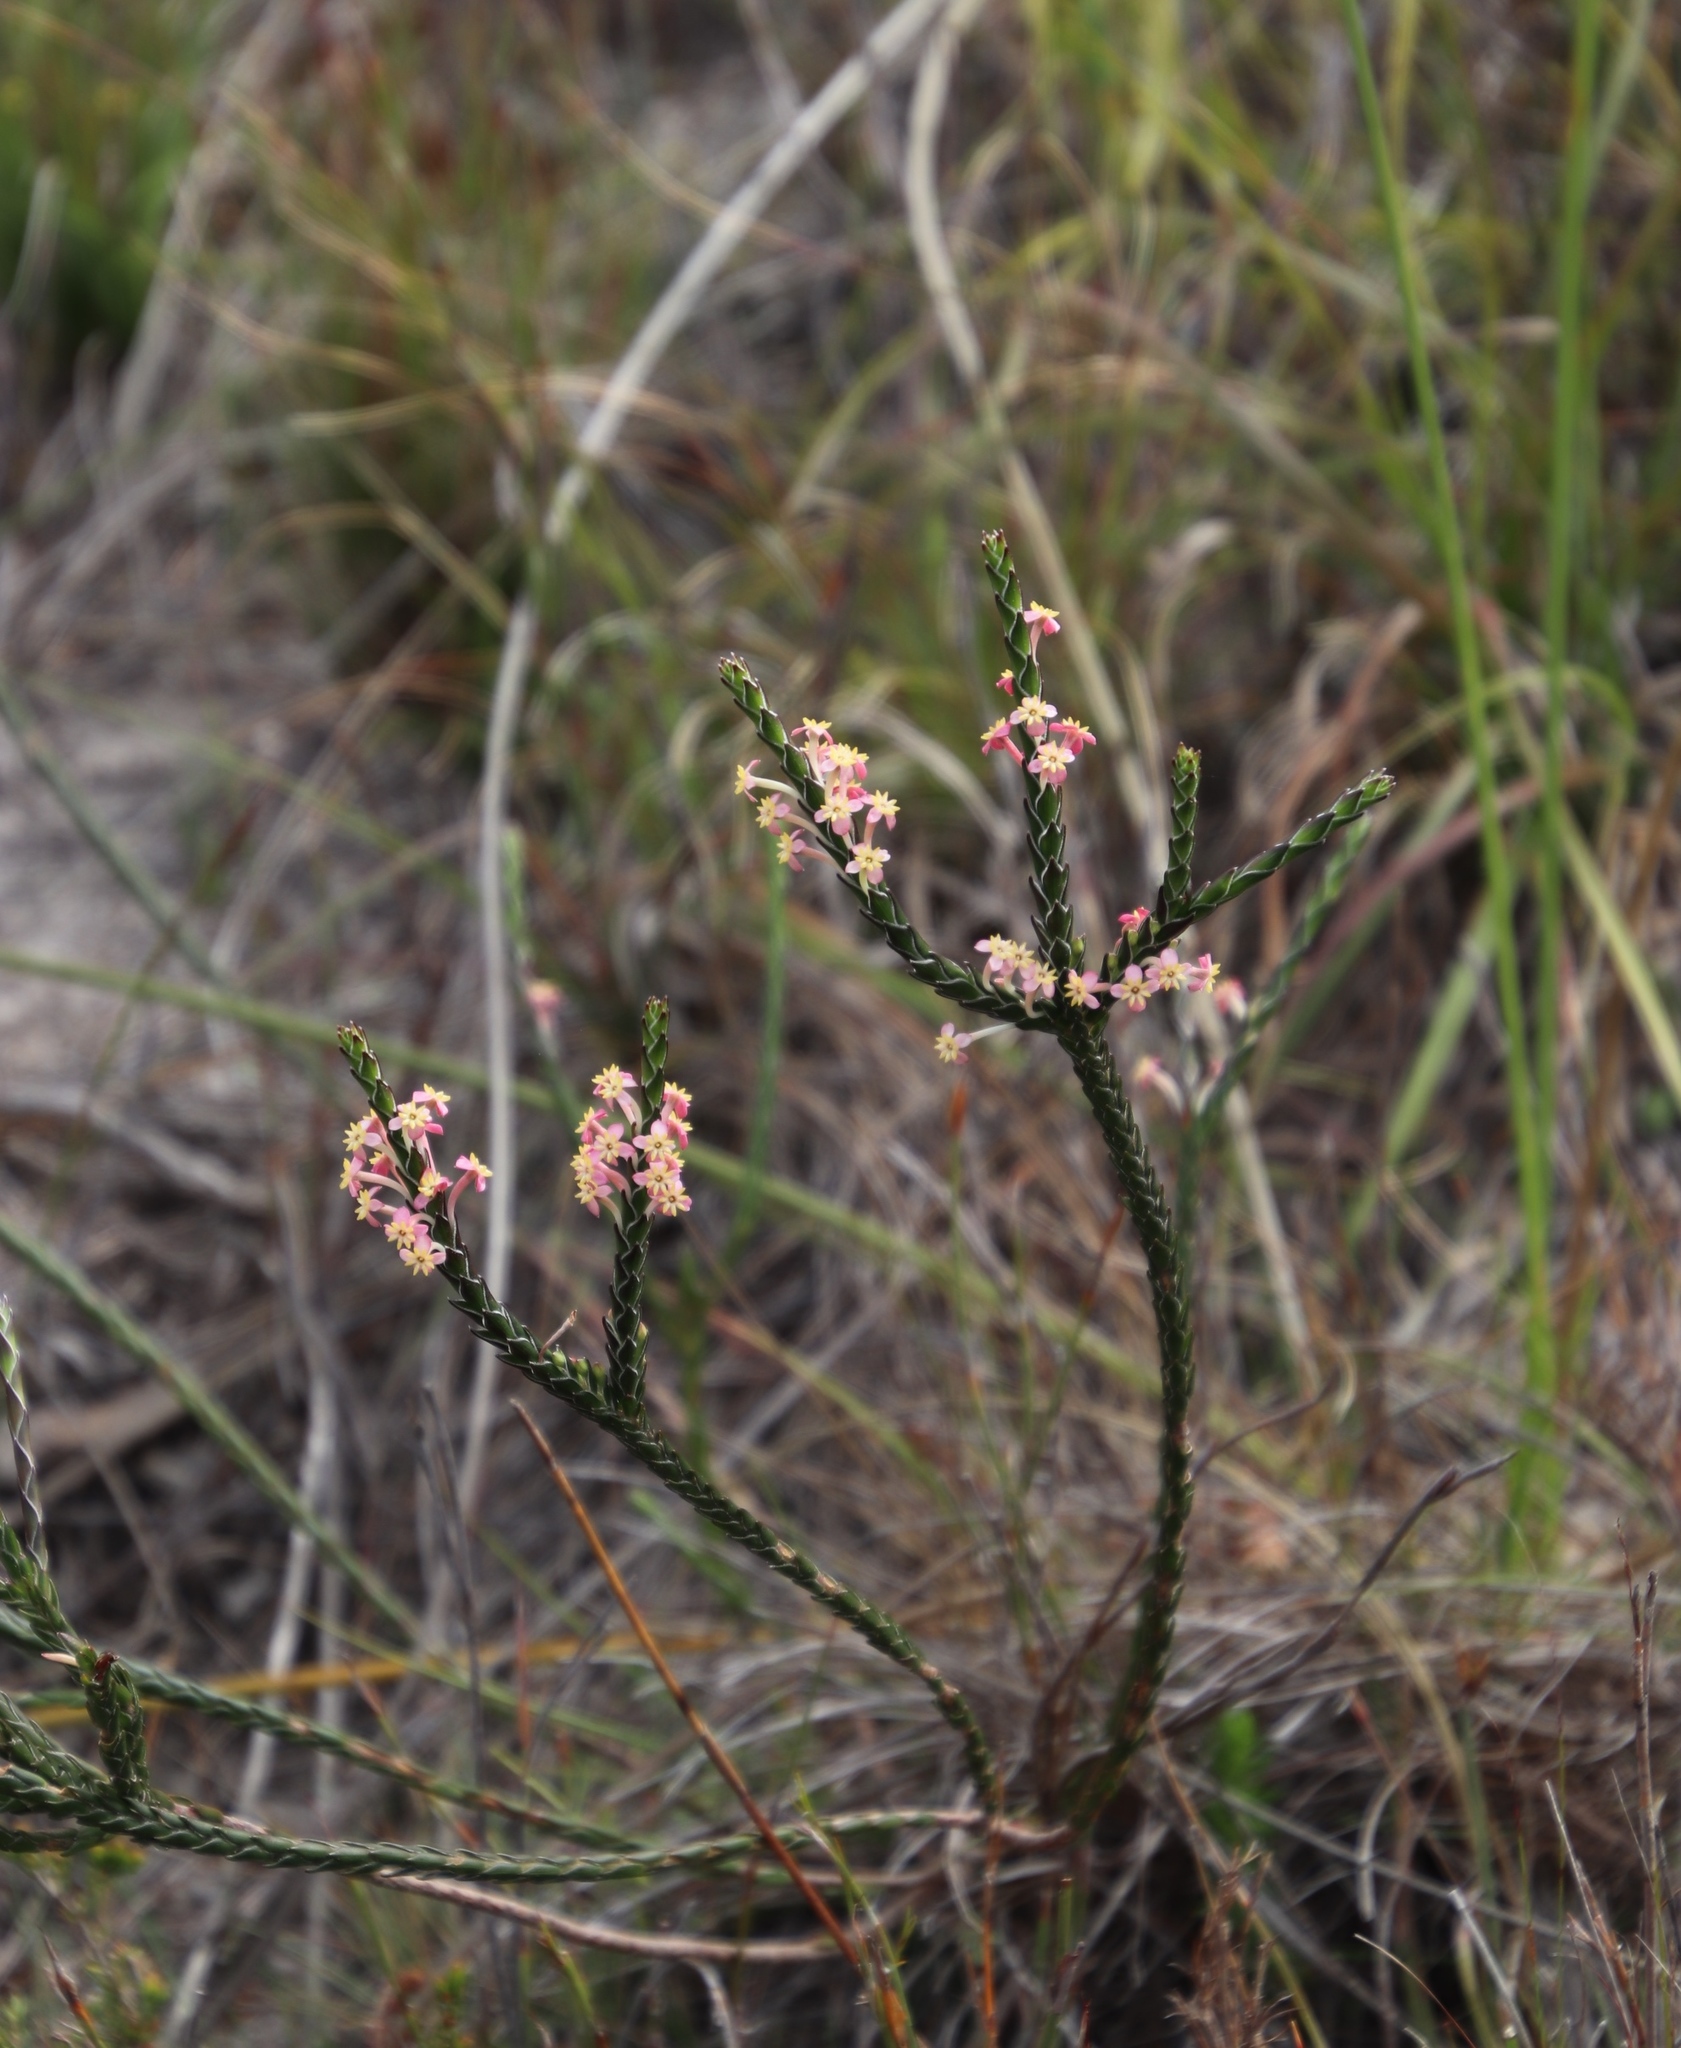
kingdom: Plantae
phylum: Tracheophyta
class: Magnoliopsida
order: Malvales
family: Thymelaeaceae
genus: Struthiola
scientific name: Struthiola ciliata
